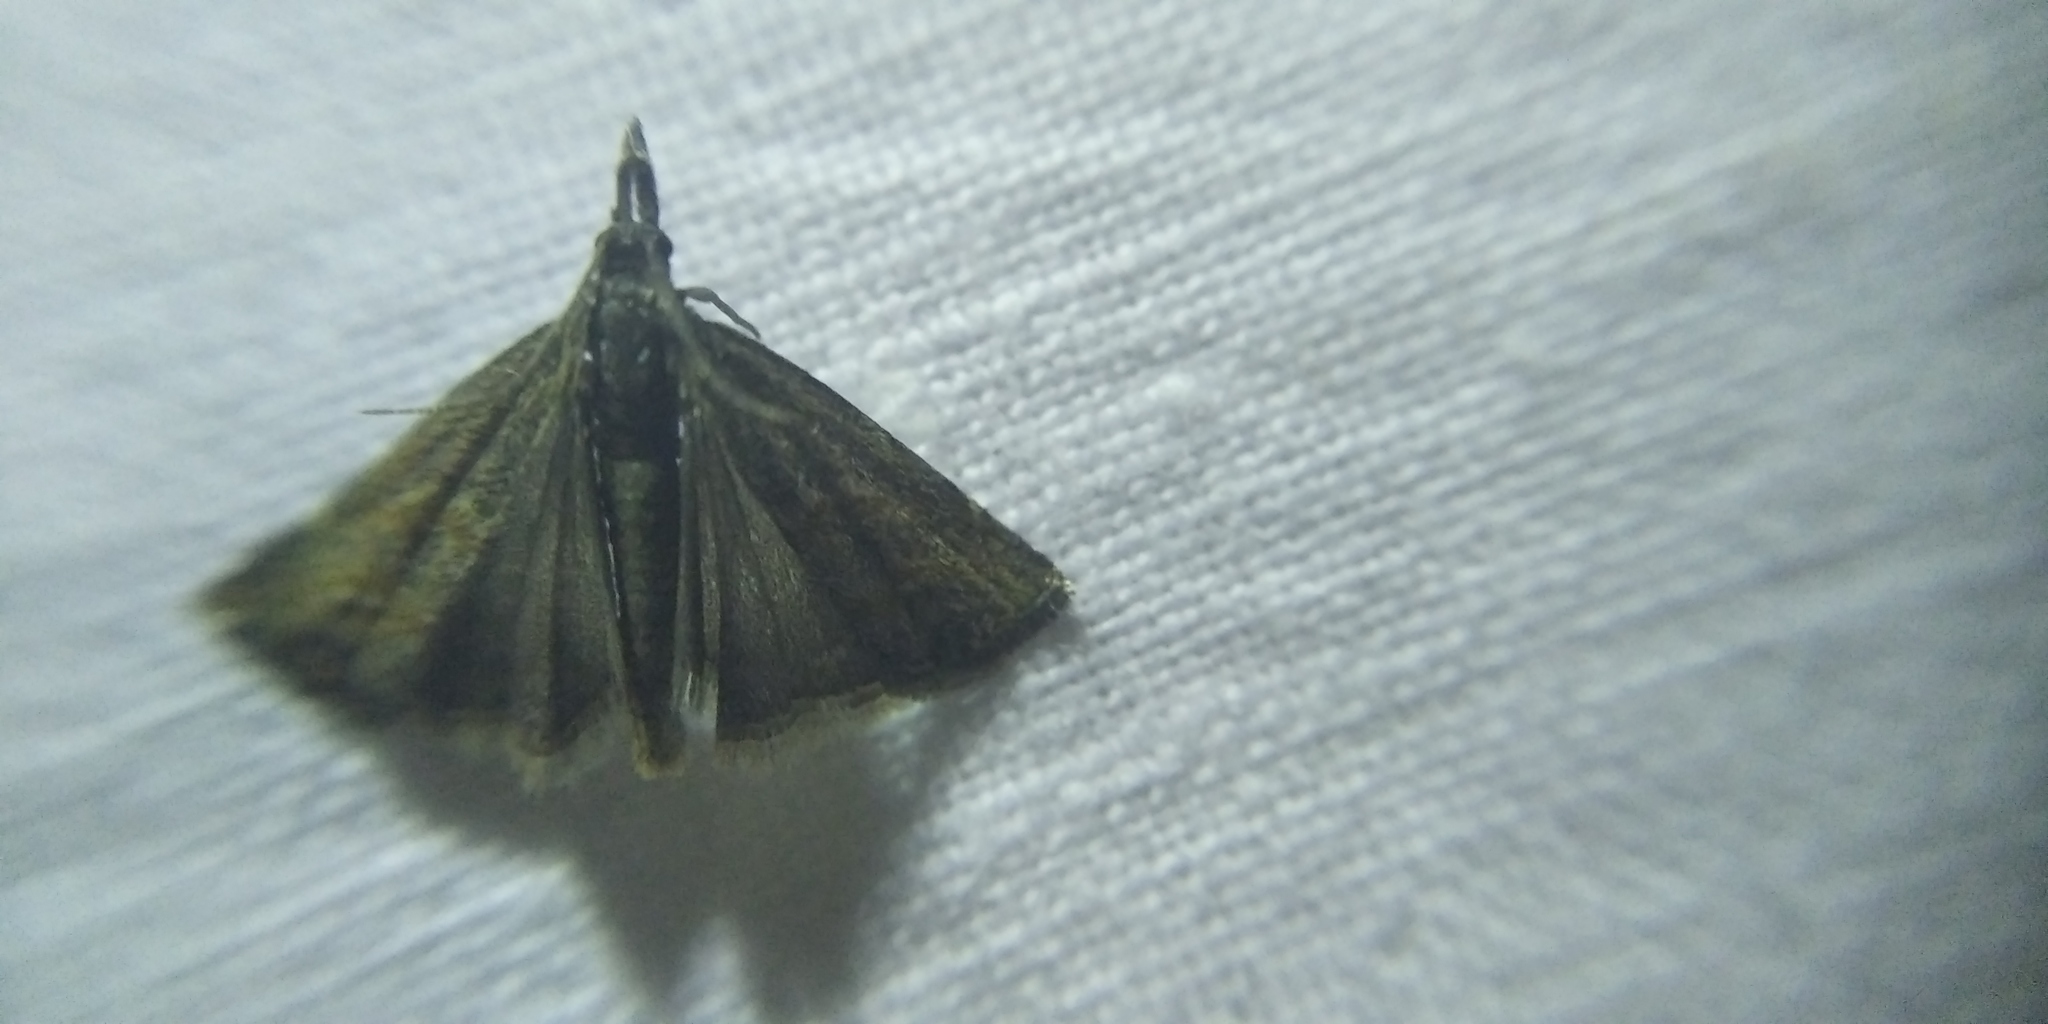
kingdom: Animalia
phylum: Arthropoda
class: Insecta
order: Lepidoptera
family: Crambidae
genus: Platytes
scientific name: Platytes cerusella
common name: Little grass-veneer
